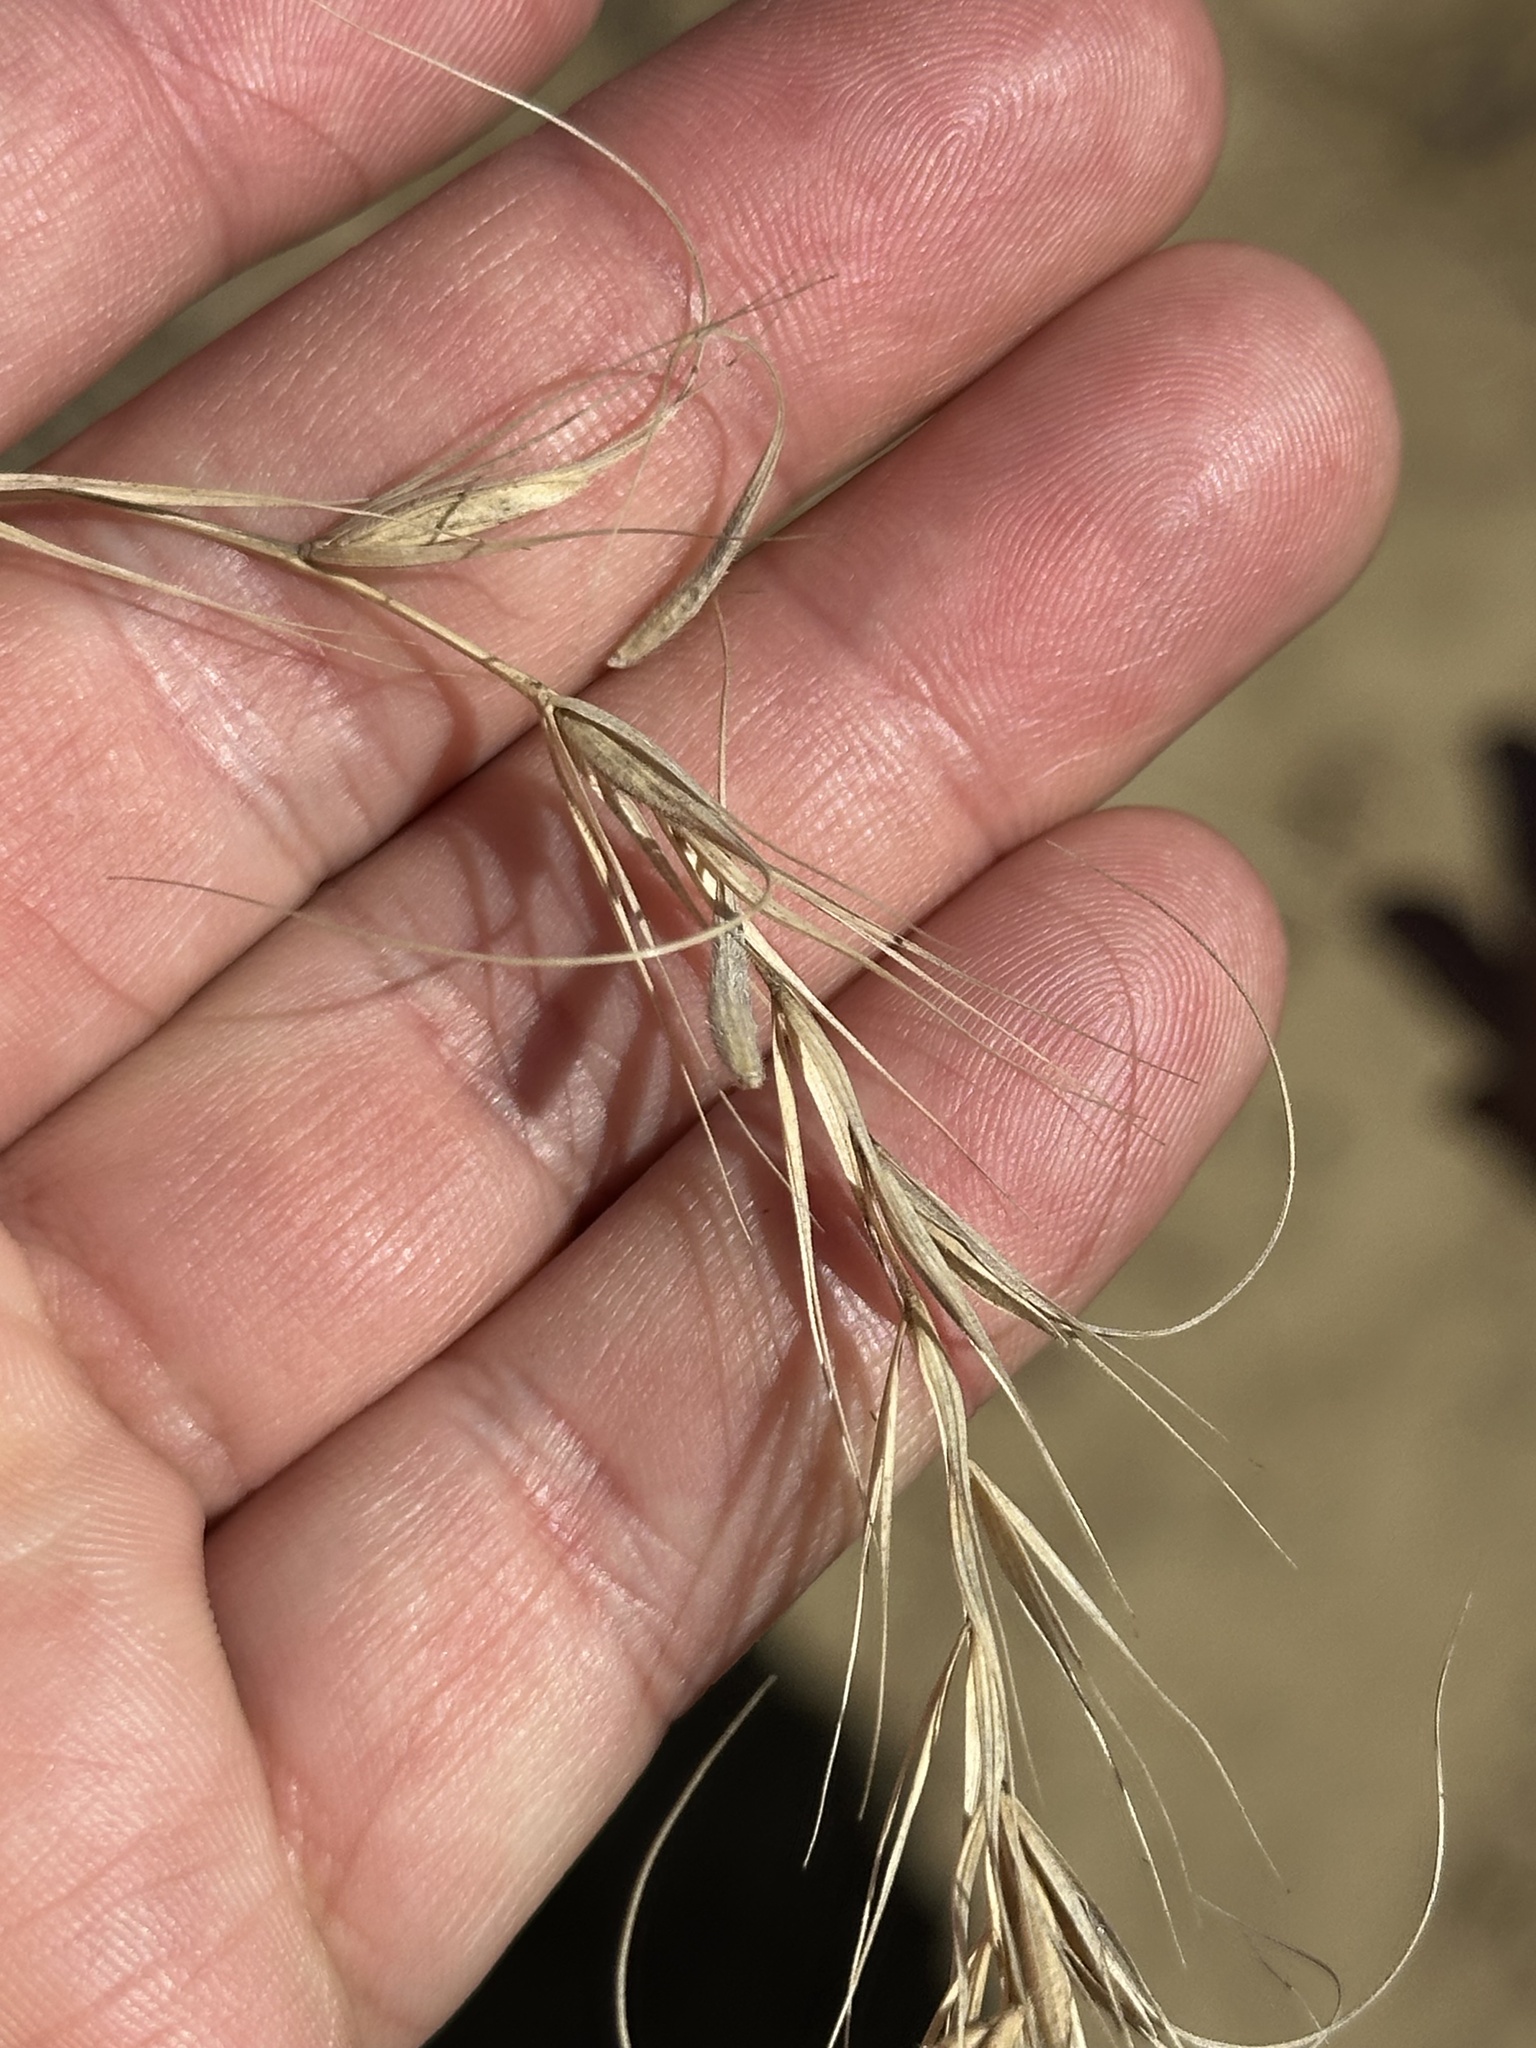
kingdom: Plantae
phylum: Tracheophyta
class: Liliopsida
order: Poales
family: Poaceae
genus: Elymus
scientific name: Elymus canadensis
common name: Canada wild rye
